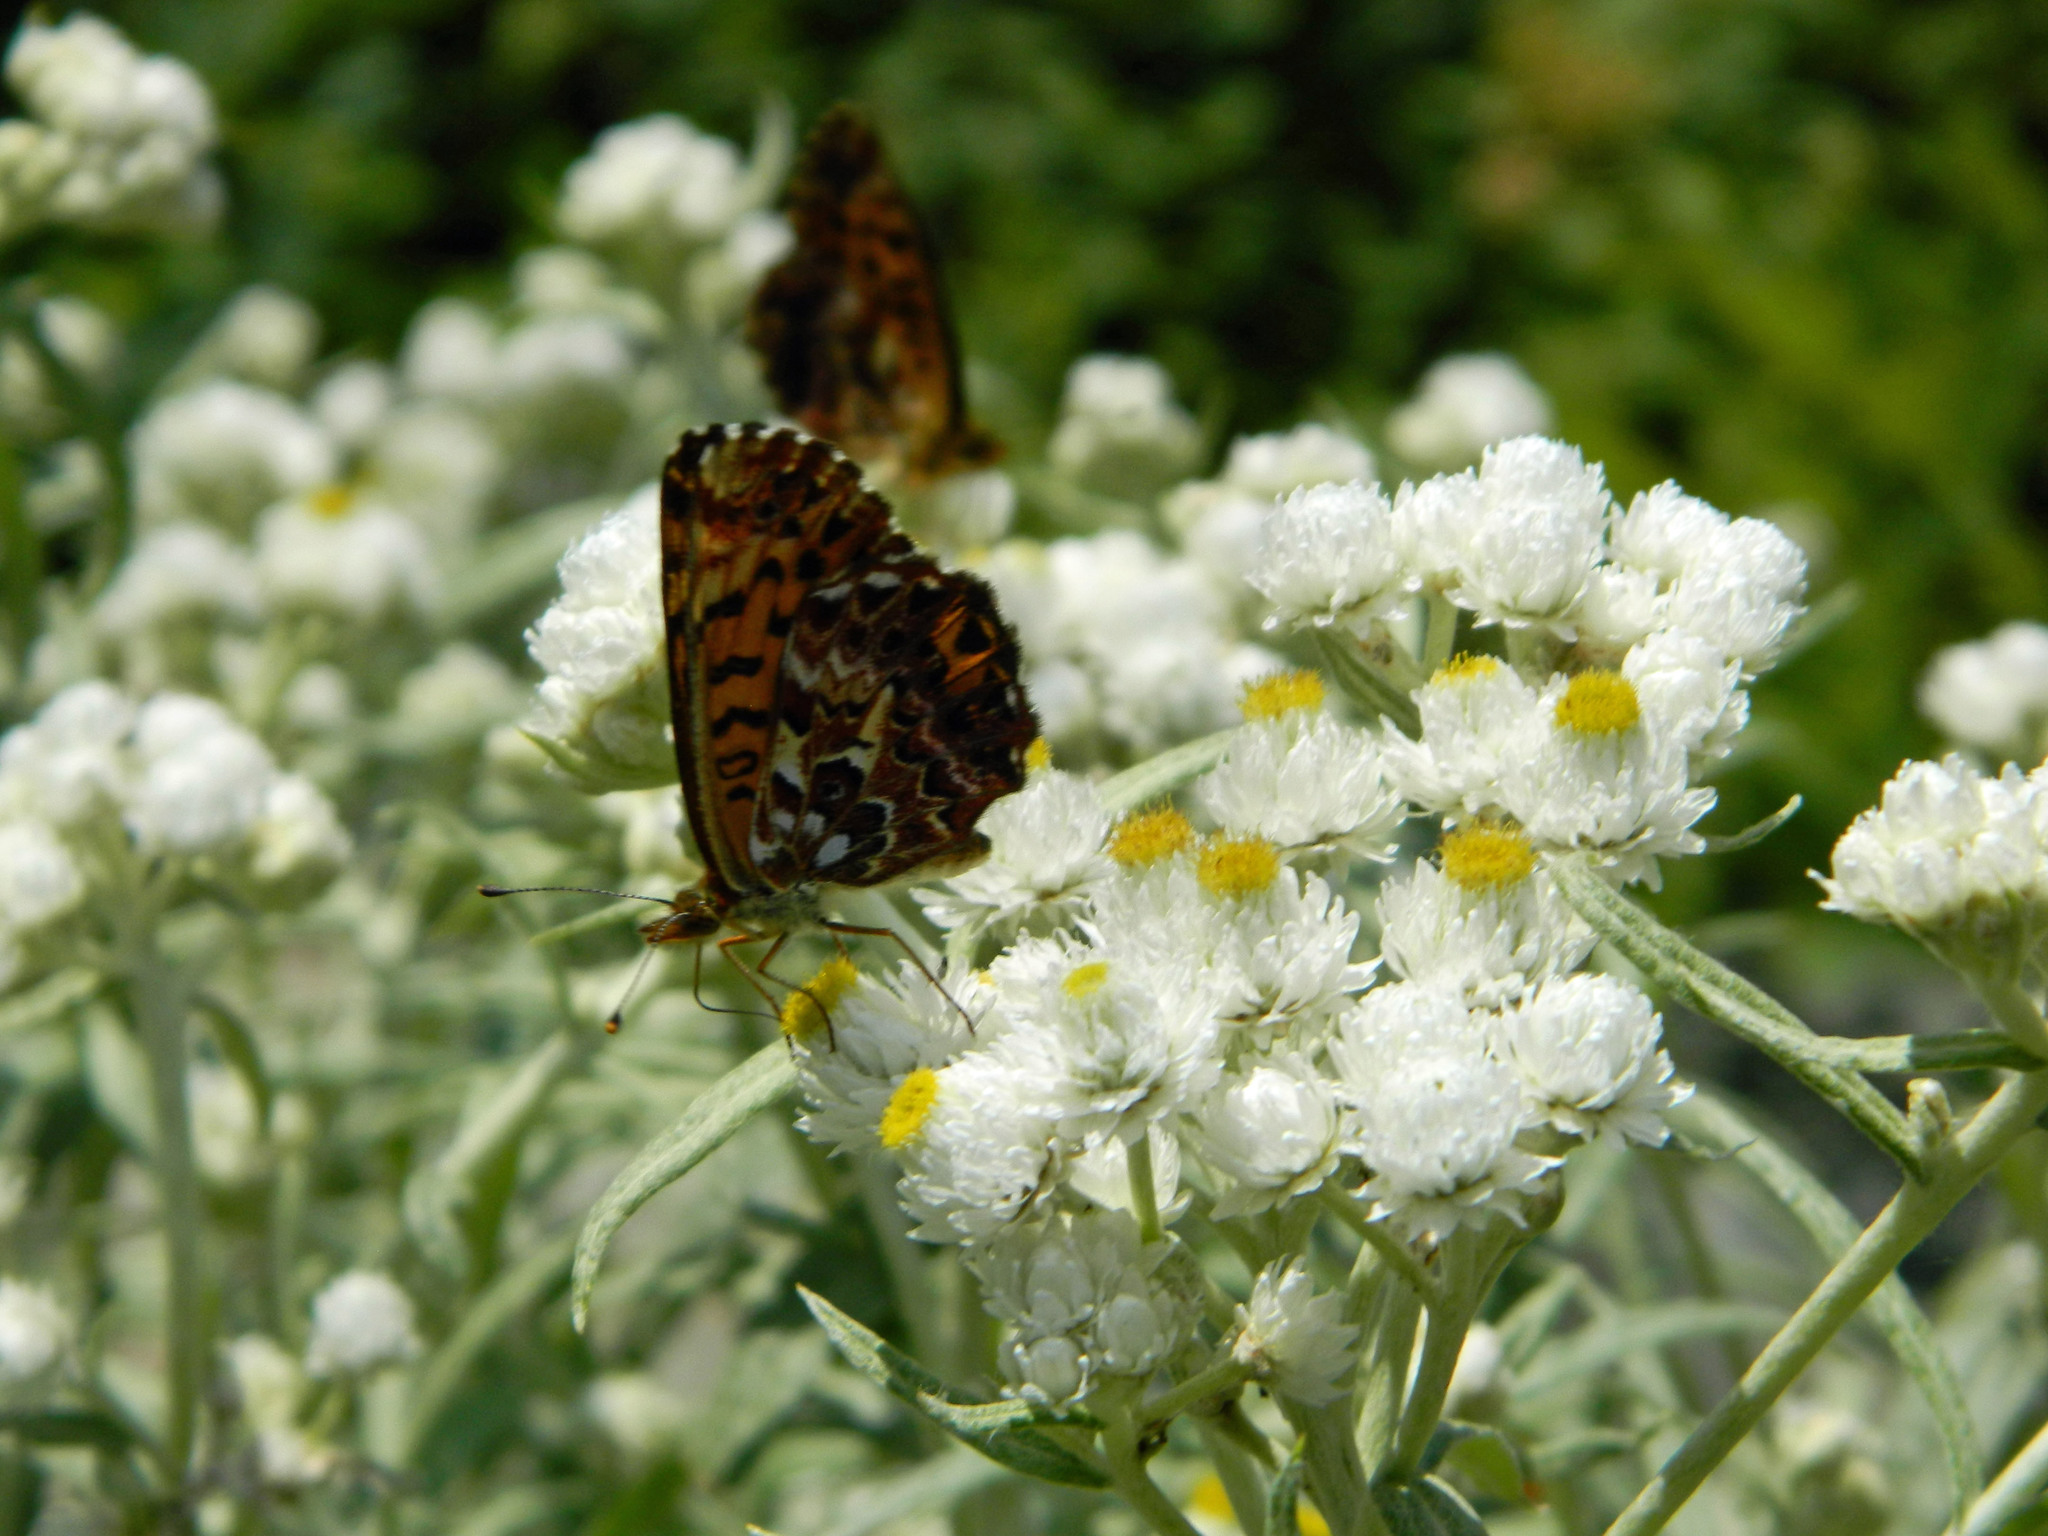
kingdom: Animalia
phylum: Arthropoda
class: Insecta
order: Lepidoptera
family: Nymphalidae
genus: Clossiana
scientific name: Clossiana chariclea
